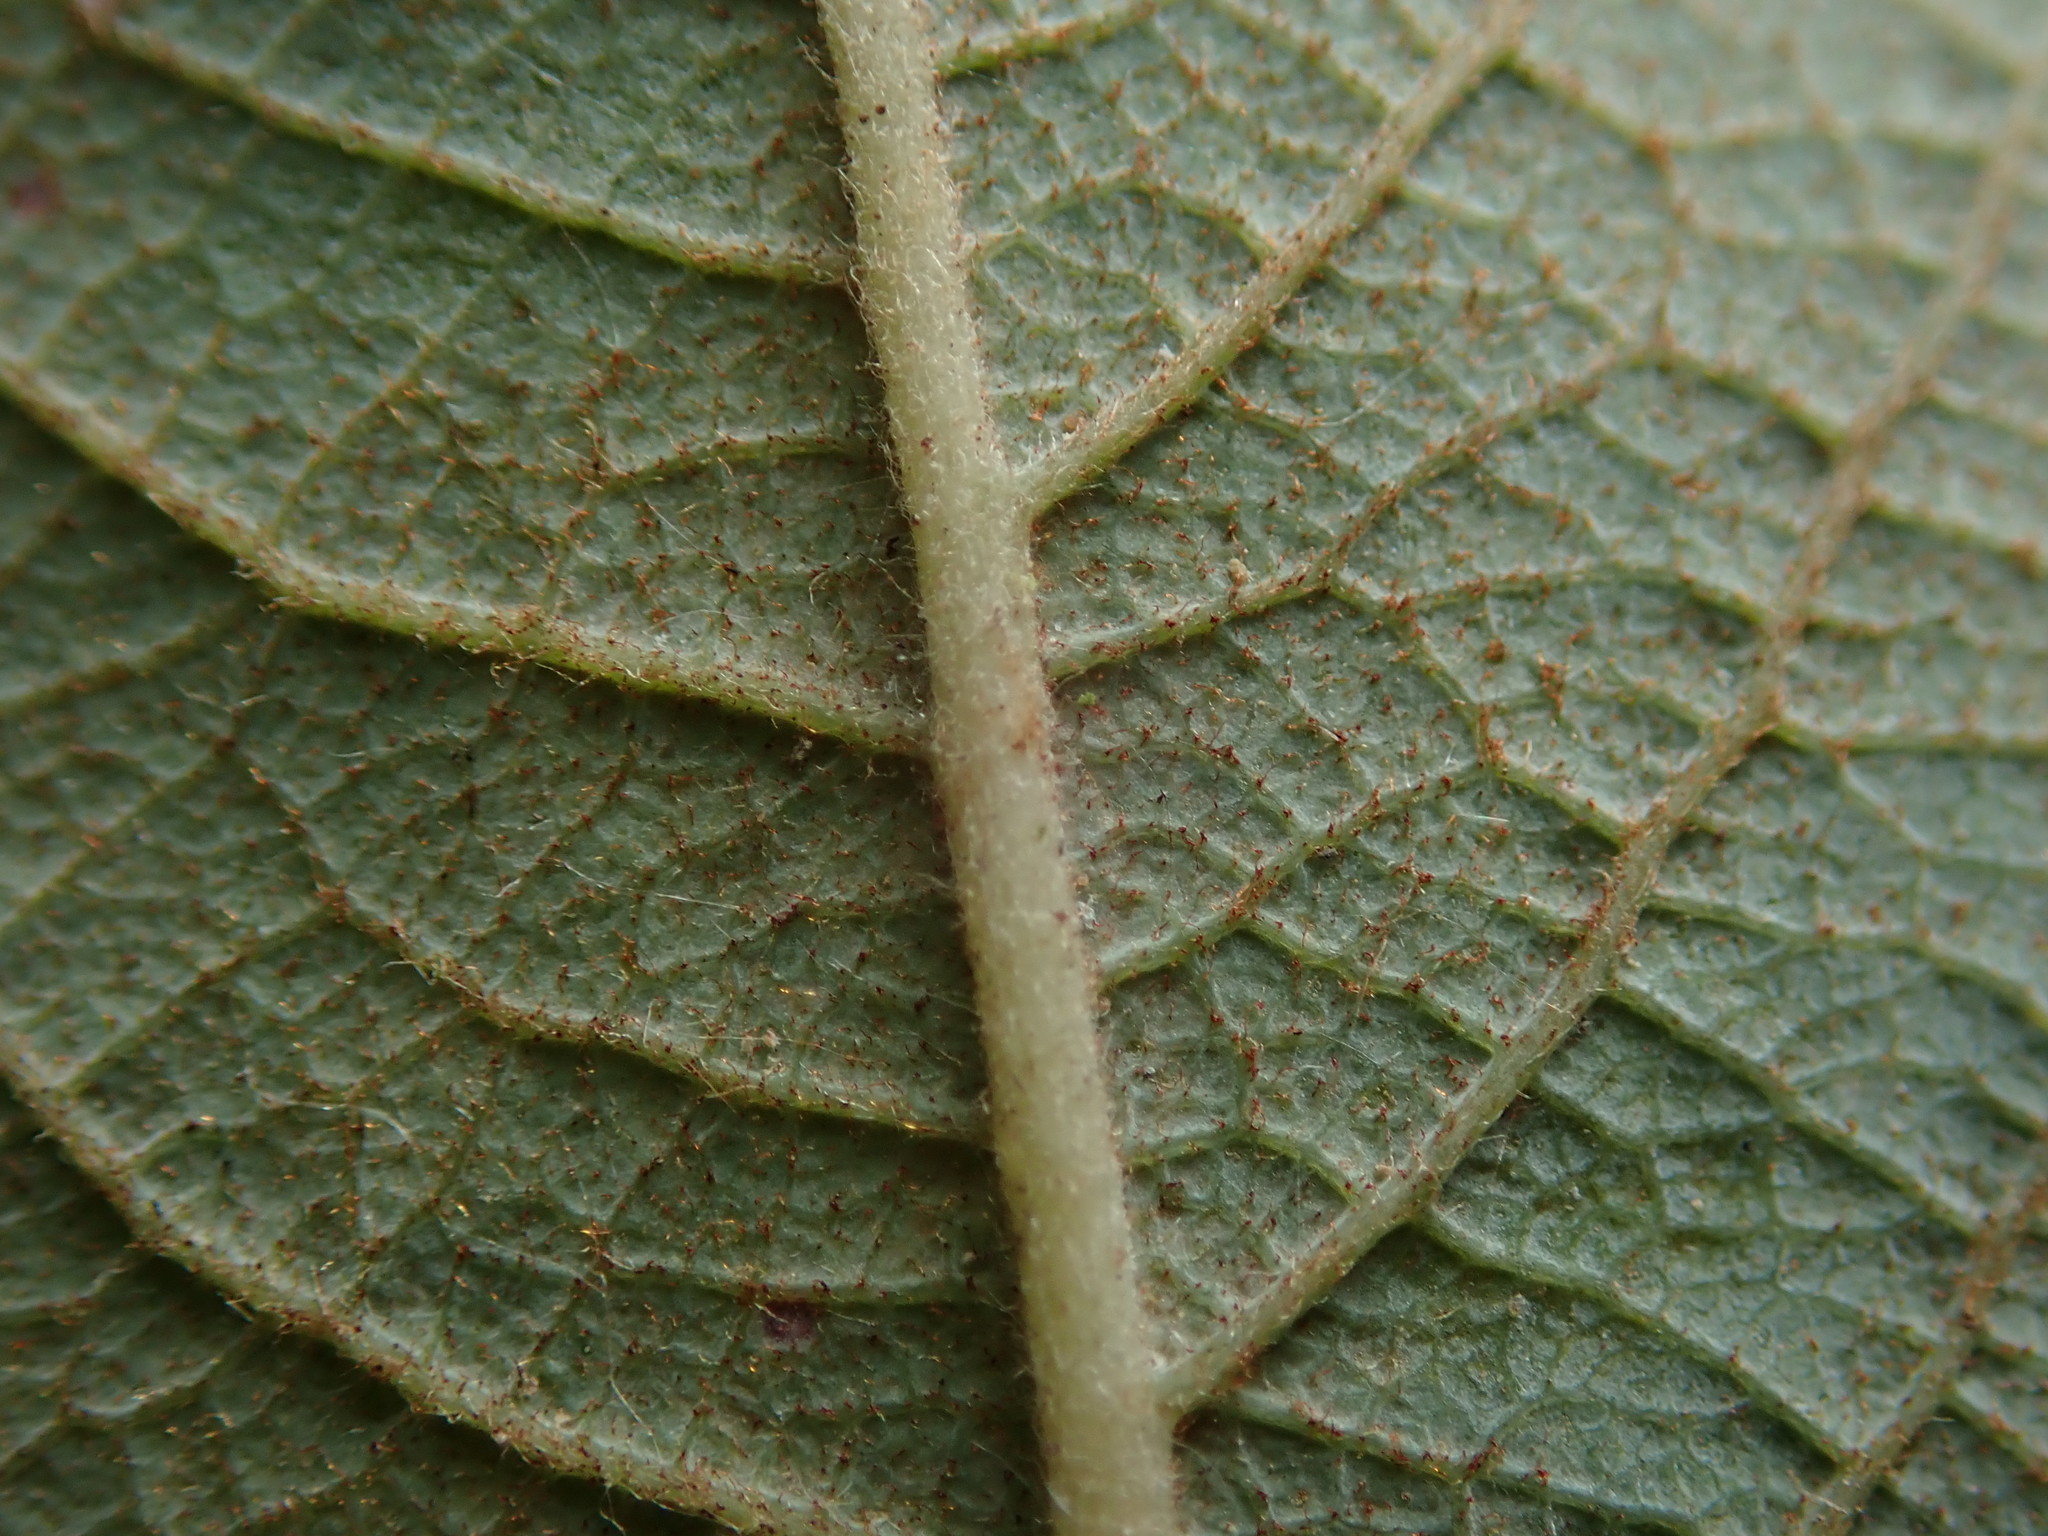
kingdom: Plantae
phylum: Tracheophyta
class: Magnoliopsida
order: Malpighiales
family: Salicaceae
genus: Salix
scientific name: Salix cinerea
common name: Common sallow
